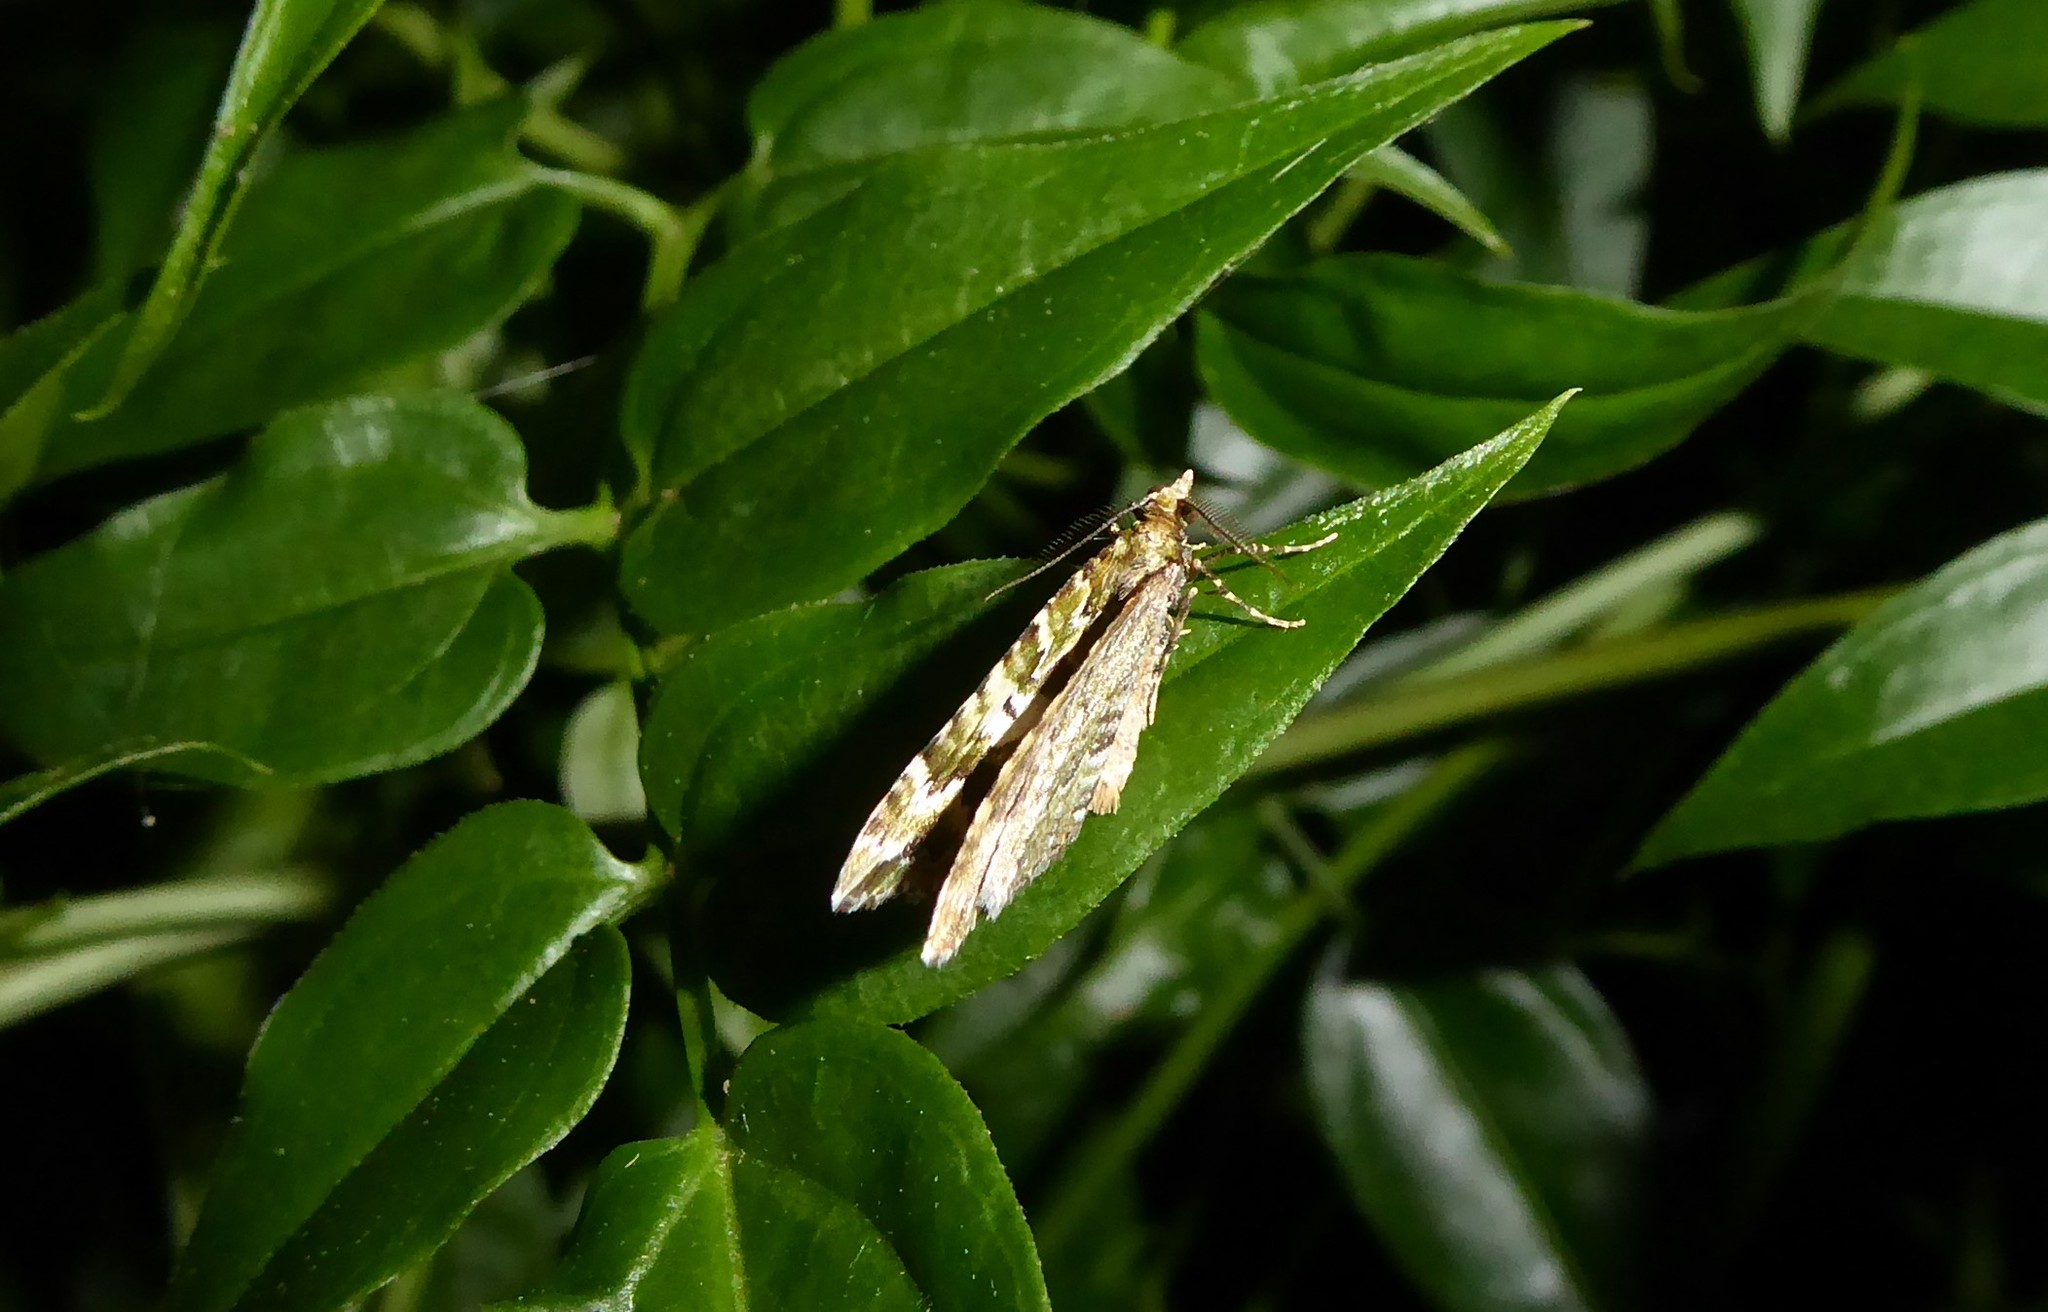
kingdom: Animalia
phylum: Arthropoda
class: Insecta
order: Lepidoptera
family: Geometridae
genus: Asaphodes
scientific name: Asaphodes beata
